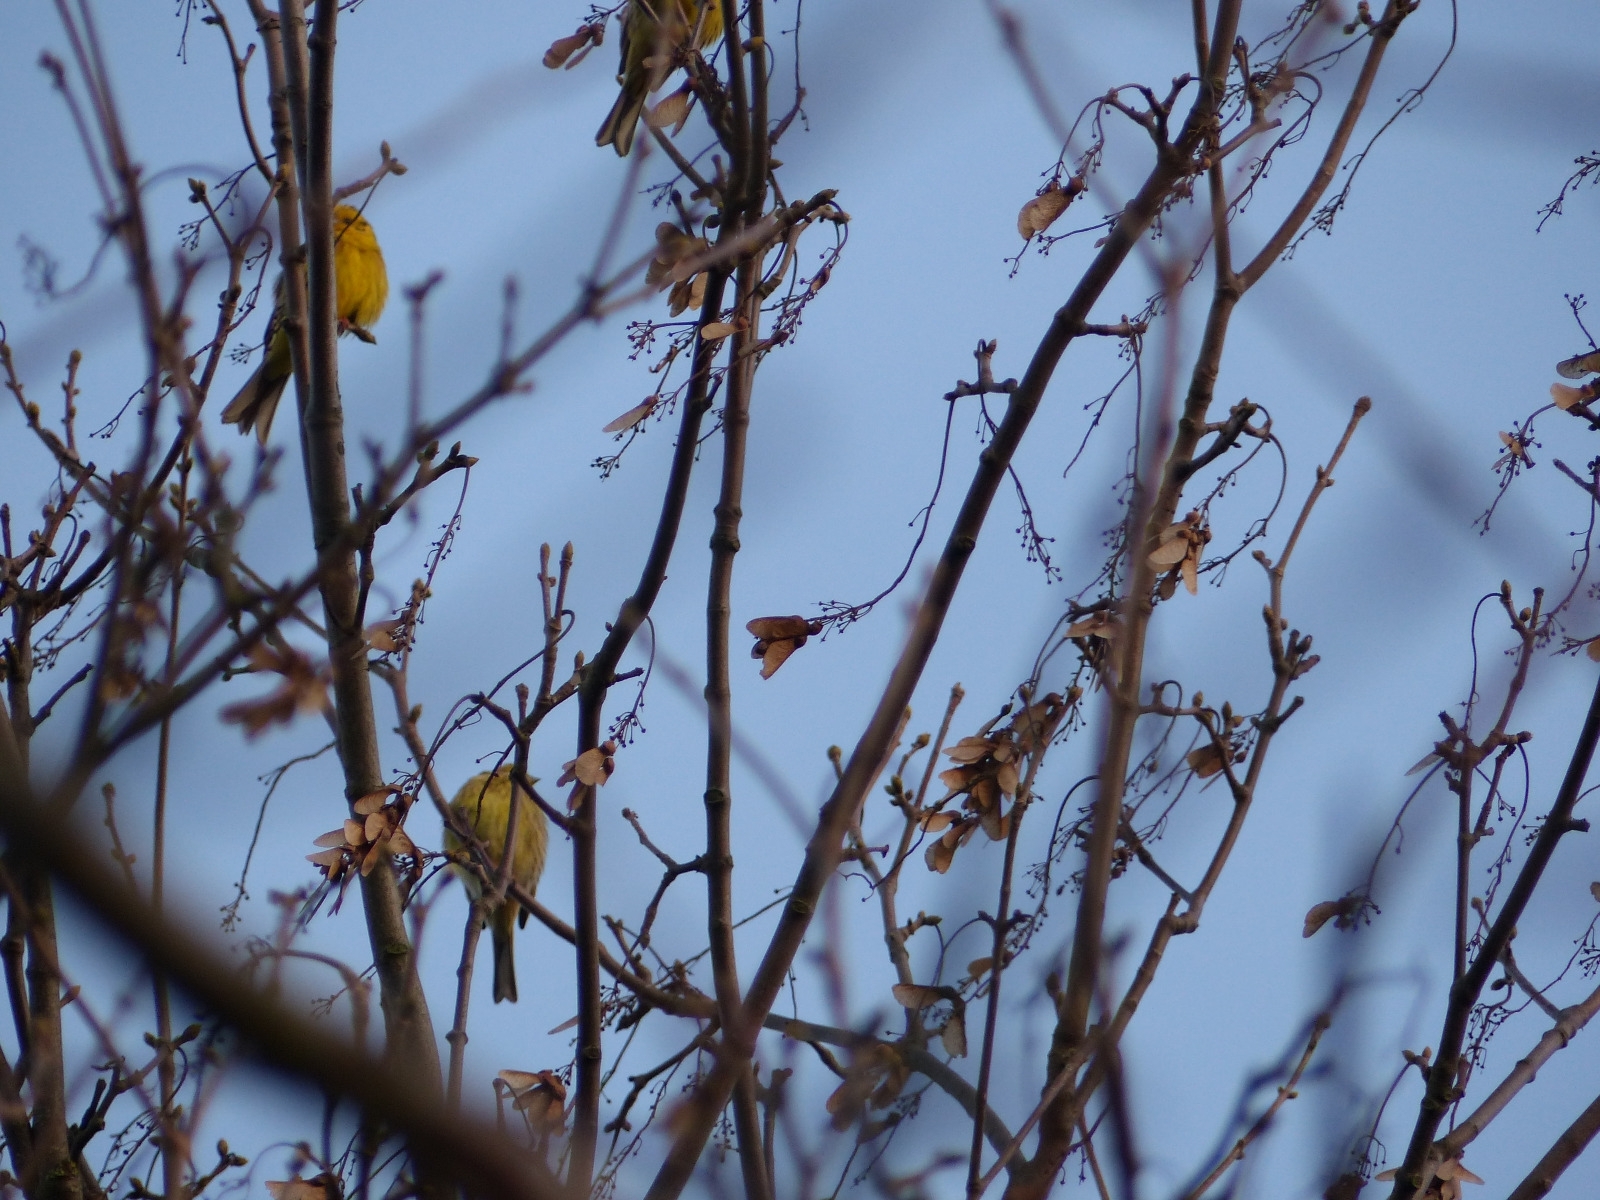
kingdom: Animalia
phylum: Chordata
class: Aves
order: Passeriformes
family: Emberizidae
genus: Emberiza
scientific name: Emberiza citrinella
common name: Yellowhammer
